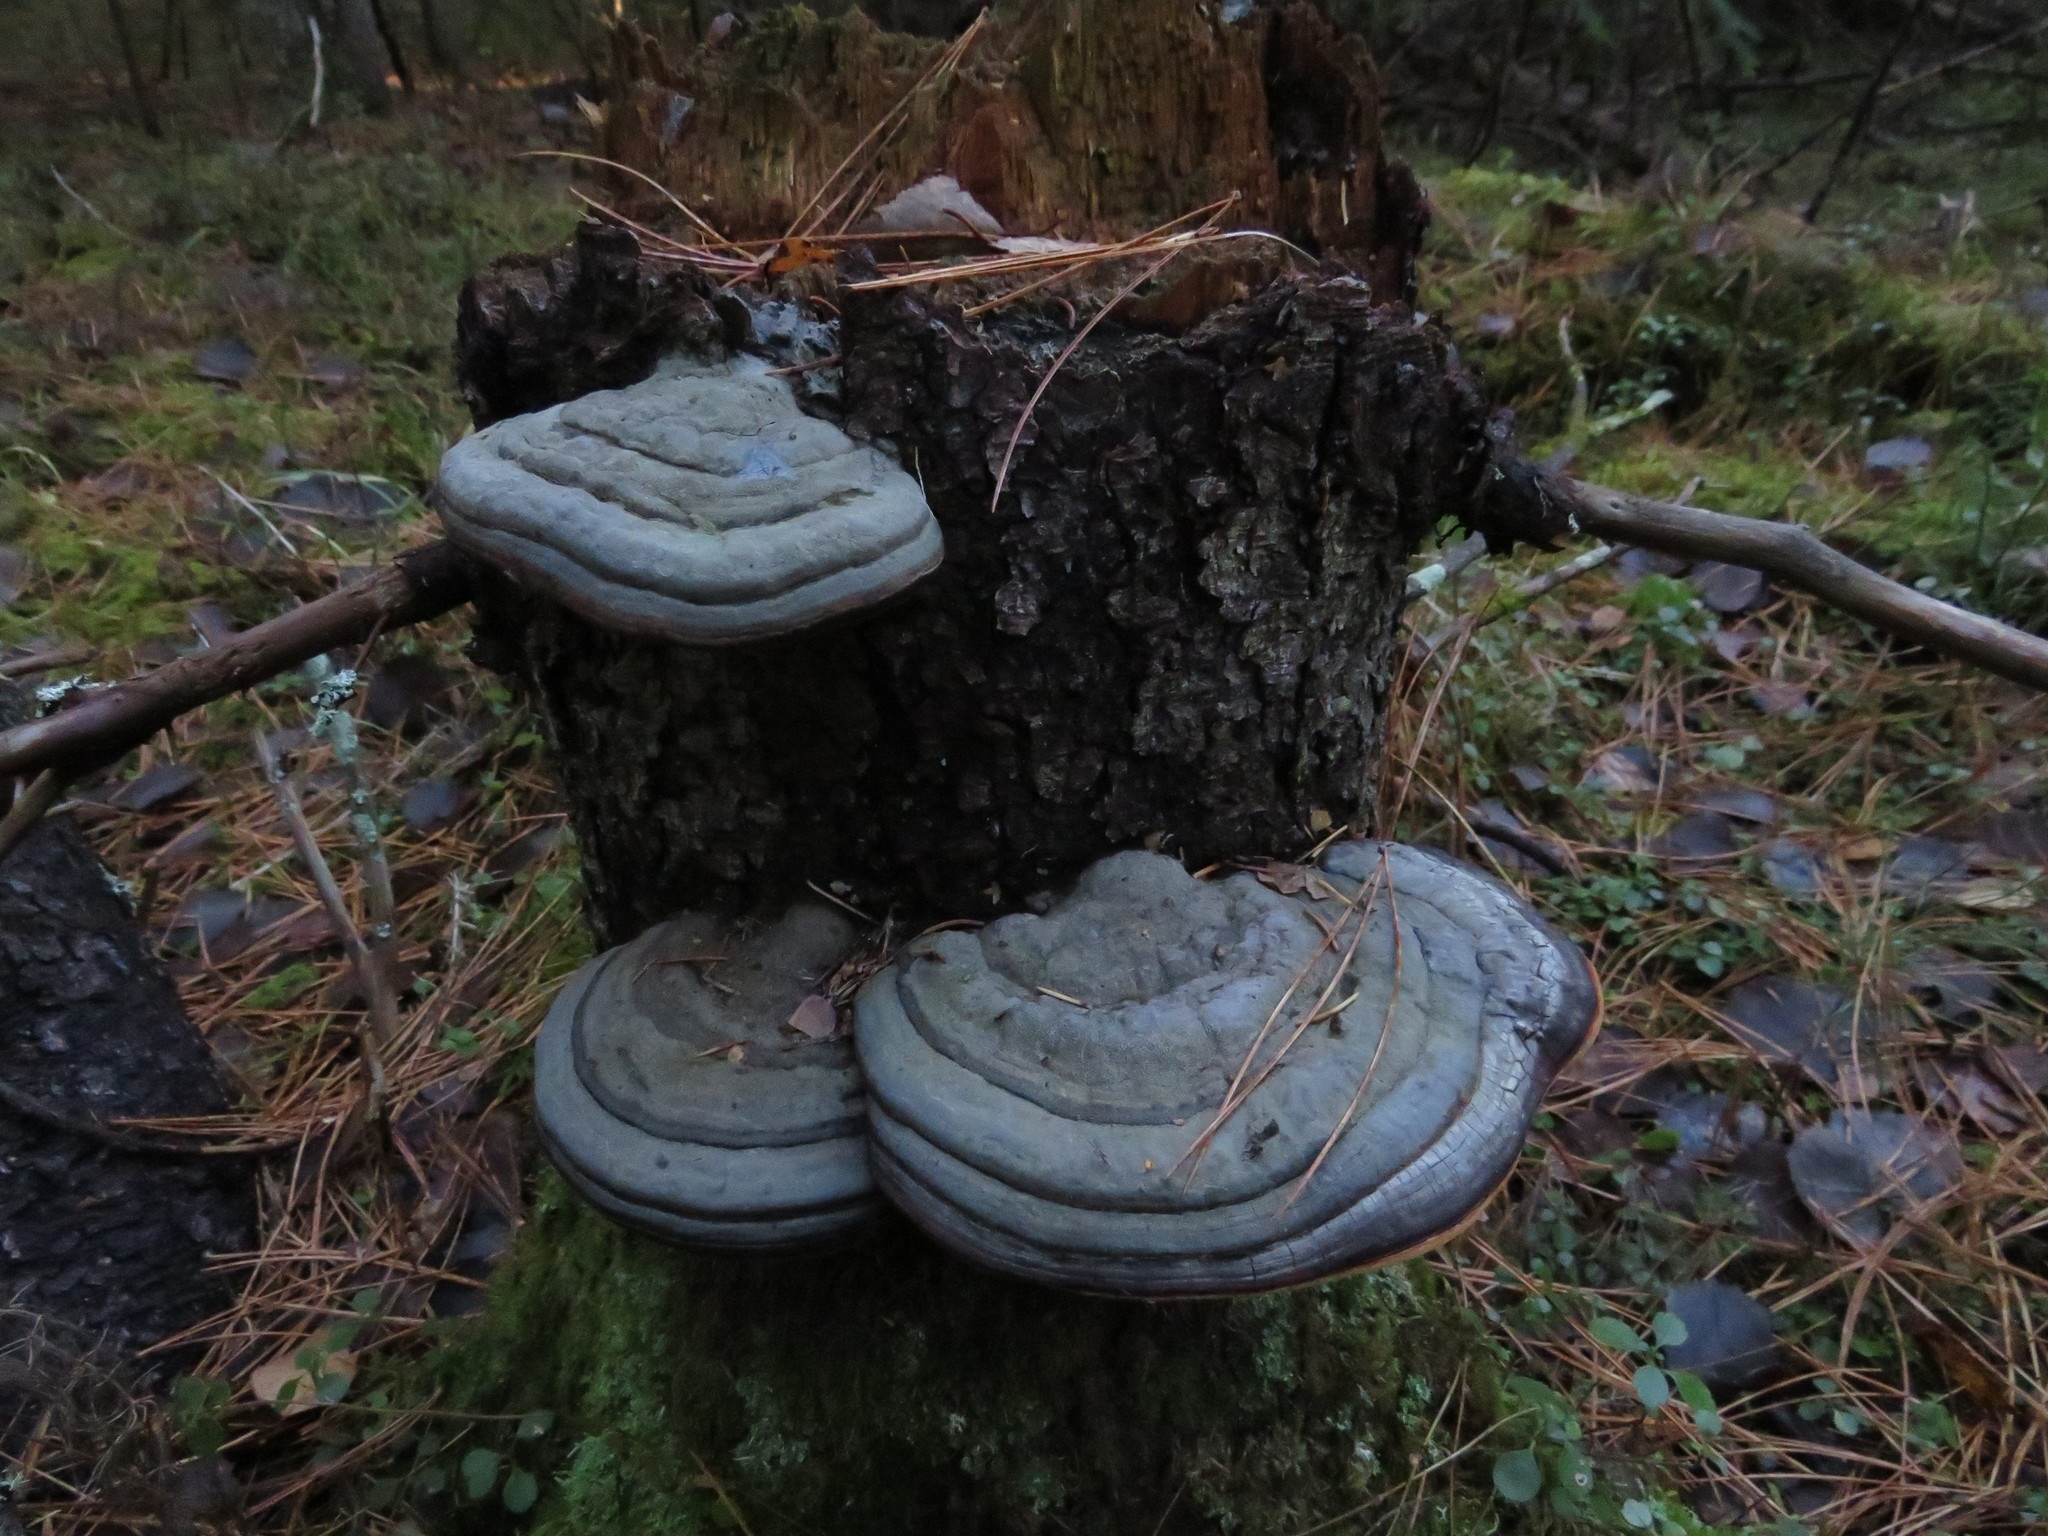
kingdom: Fungi
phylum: Basidiomycota
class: Agaricomycetes
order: Polyporales
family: Fomitopsidaceae
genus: Fomitopsis
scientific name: Fomitopsis pinicola
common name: Red-belted bracket
